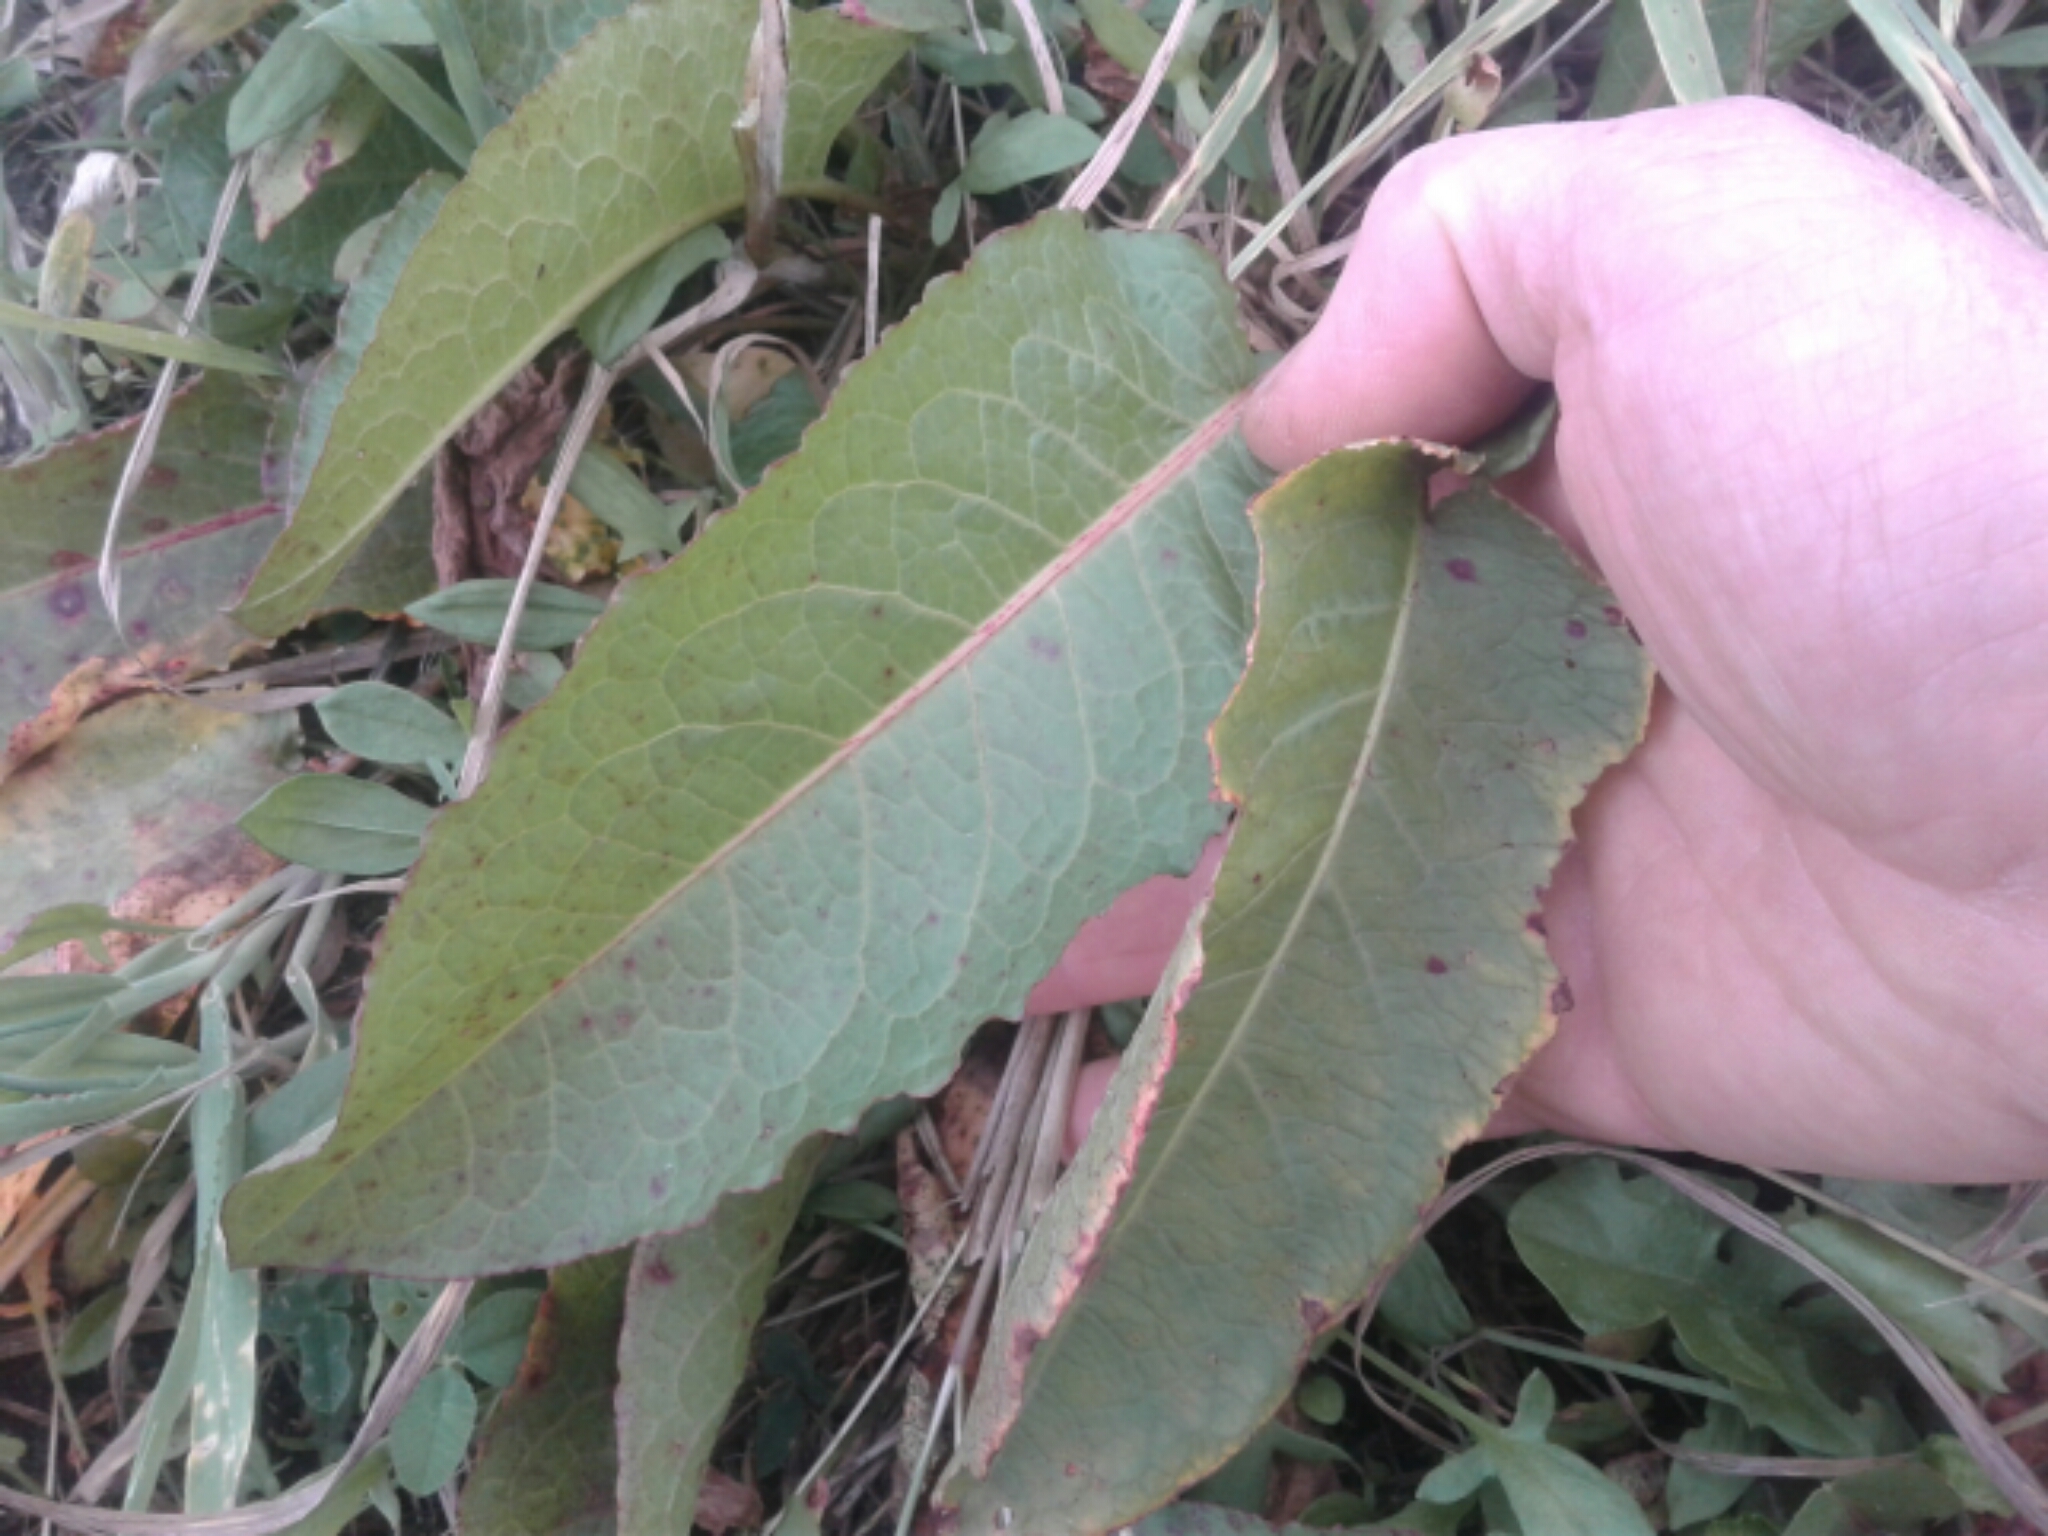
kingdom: Plantae
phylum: Tracheophyta
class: Magnoliopsida
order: Caryophyllales
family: Polygonaceae
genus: Rumex
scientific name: Rumex
